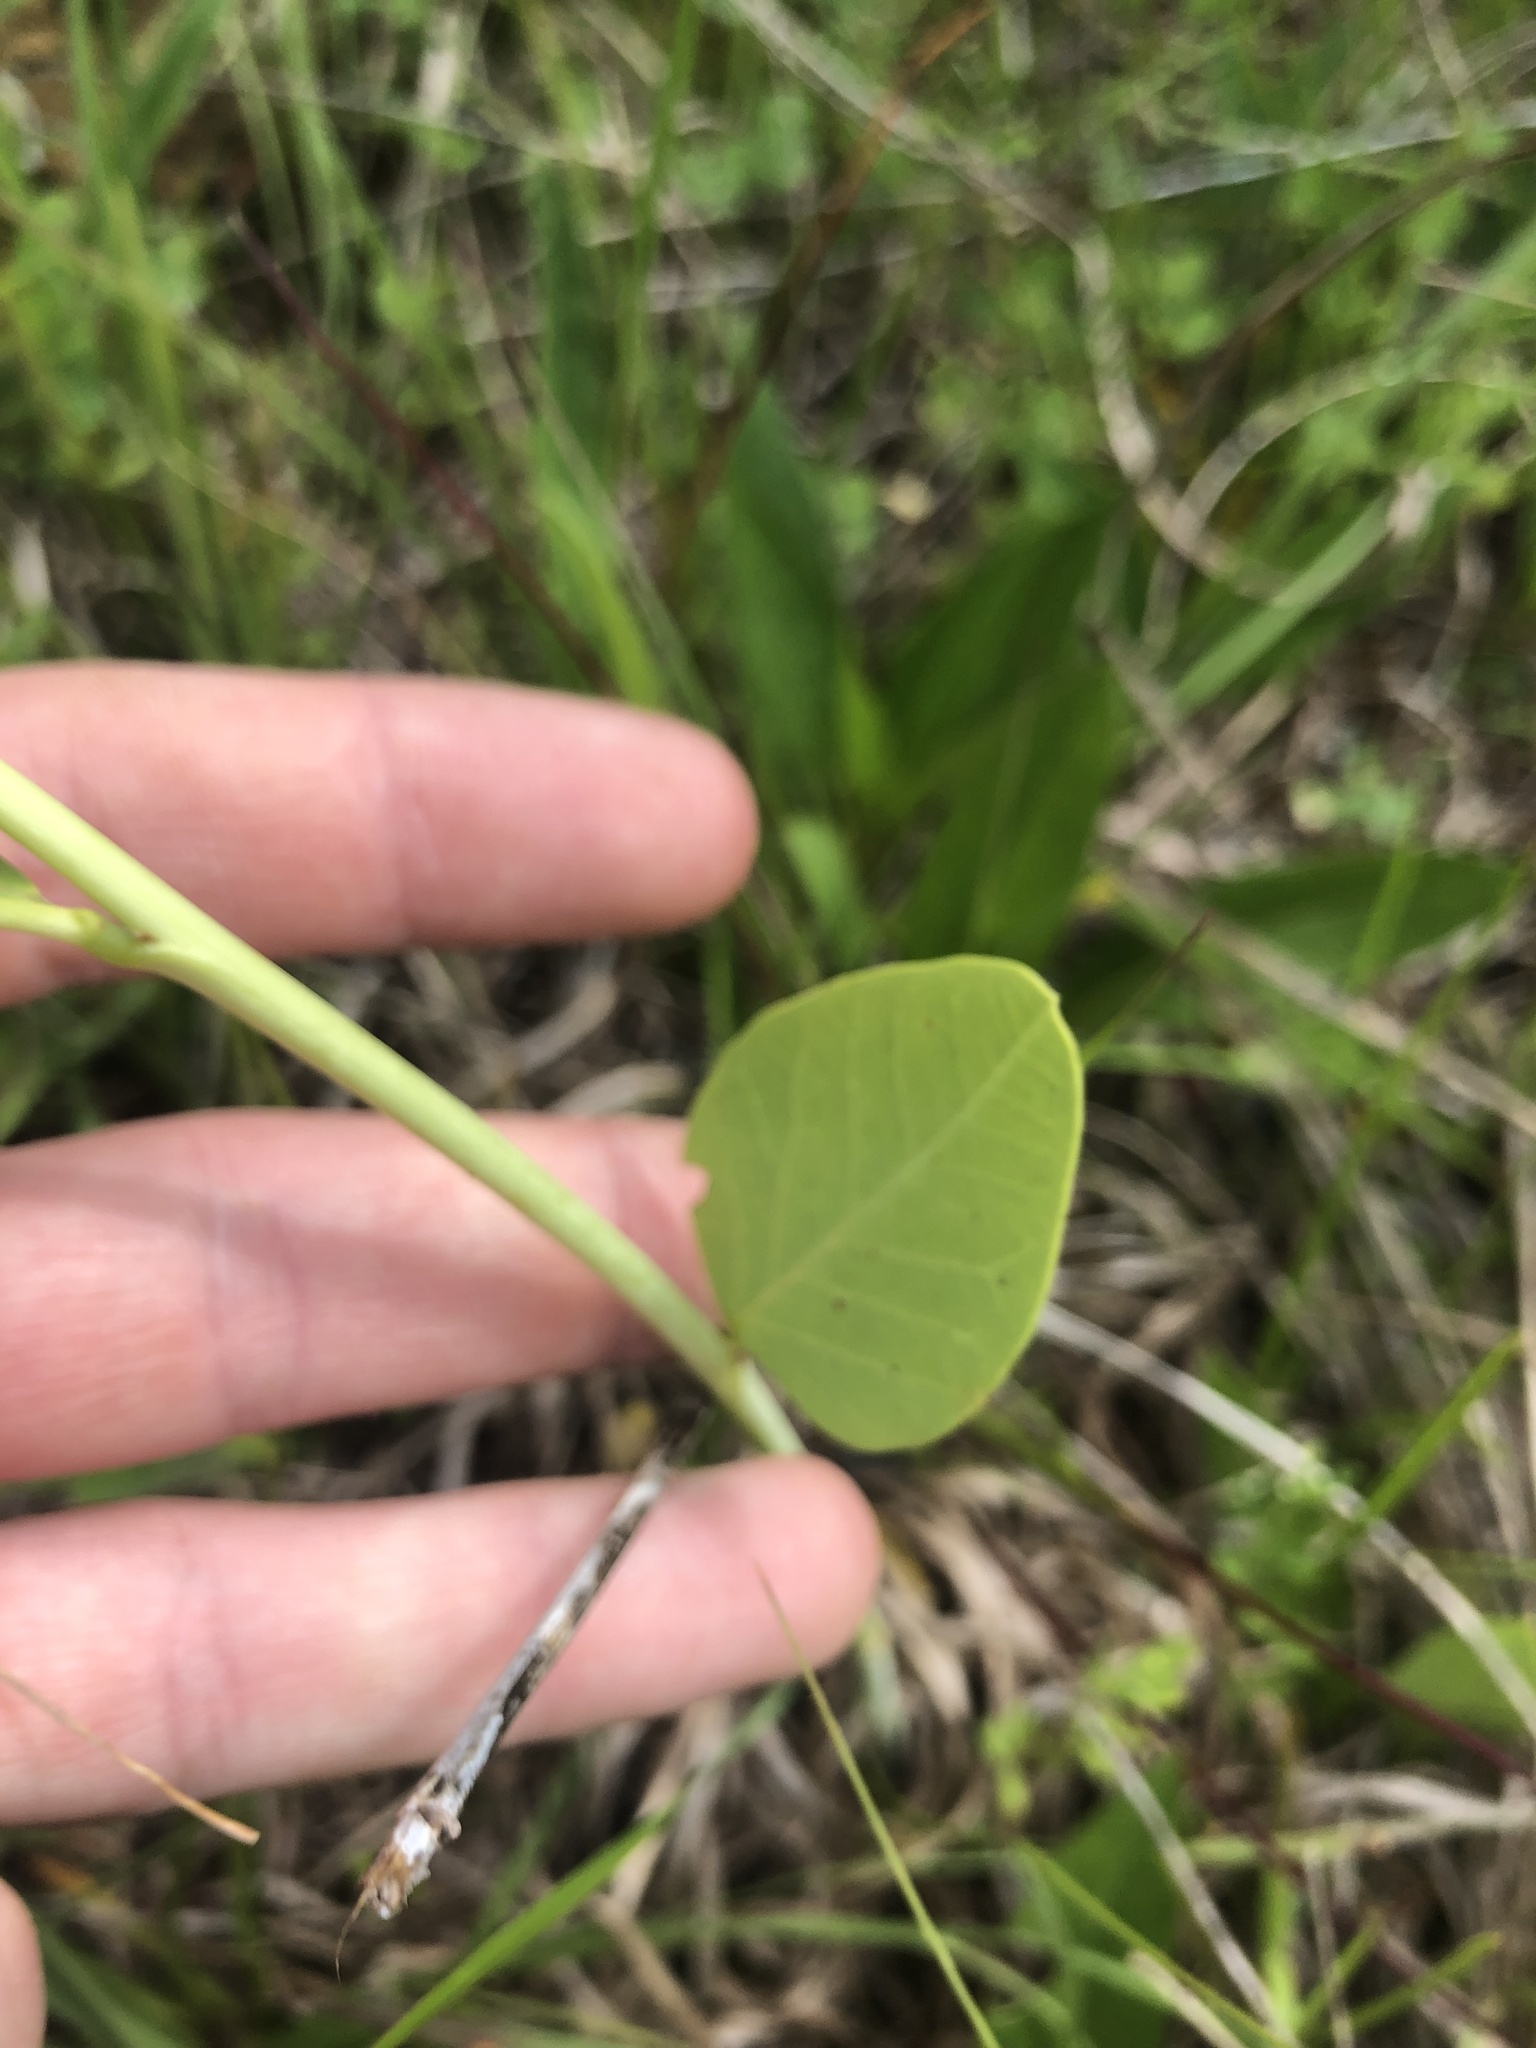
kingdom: Plantae
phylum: Tracheophyta
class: Magnoliopsida
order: Fabales
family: Fabaceae
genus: Sesbania
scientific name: Sesbania vesicaria
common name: Bagpod
